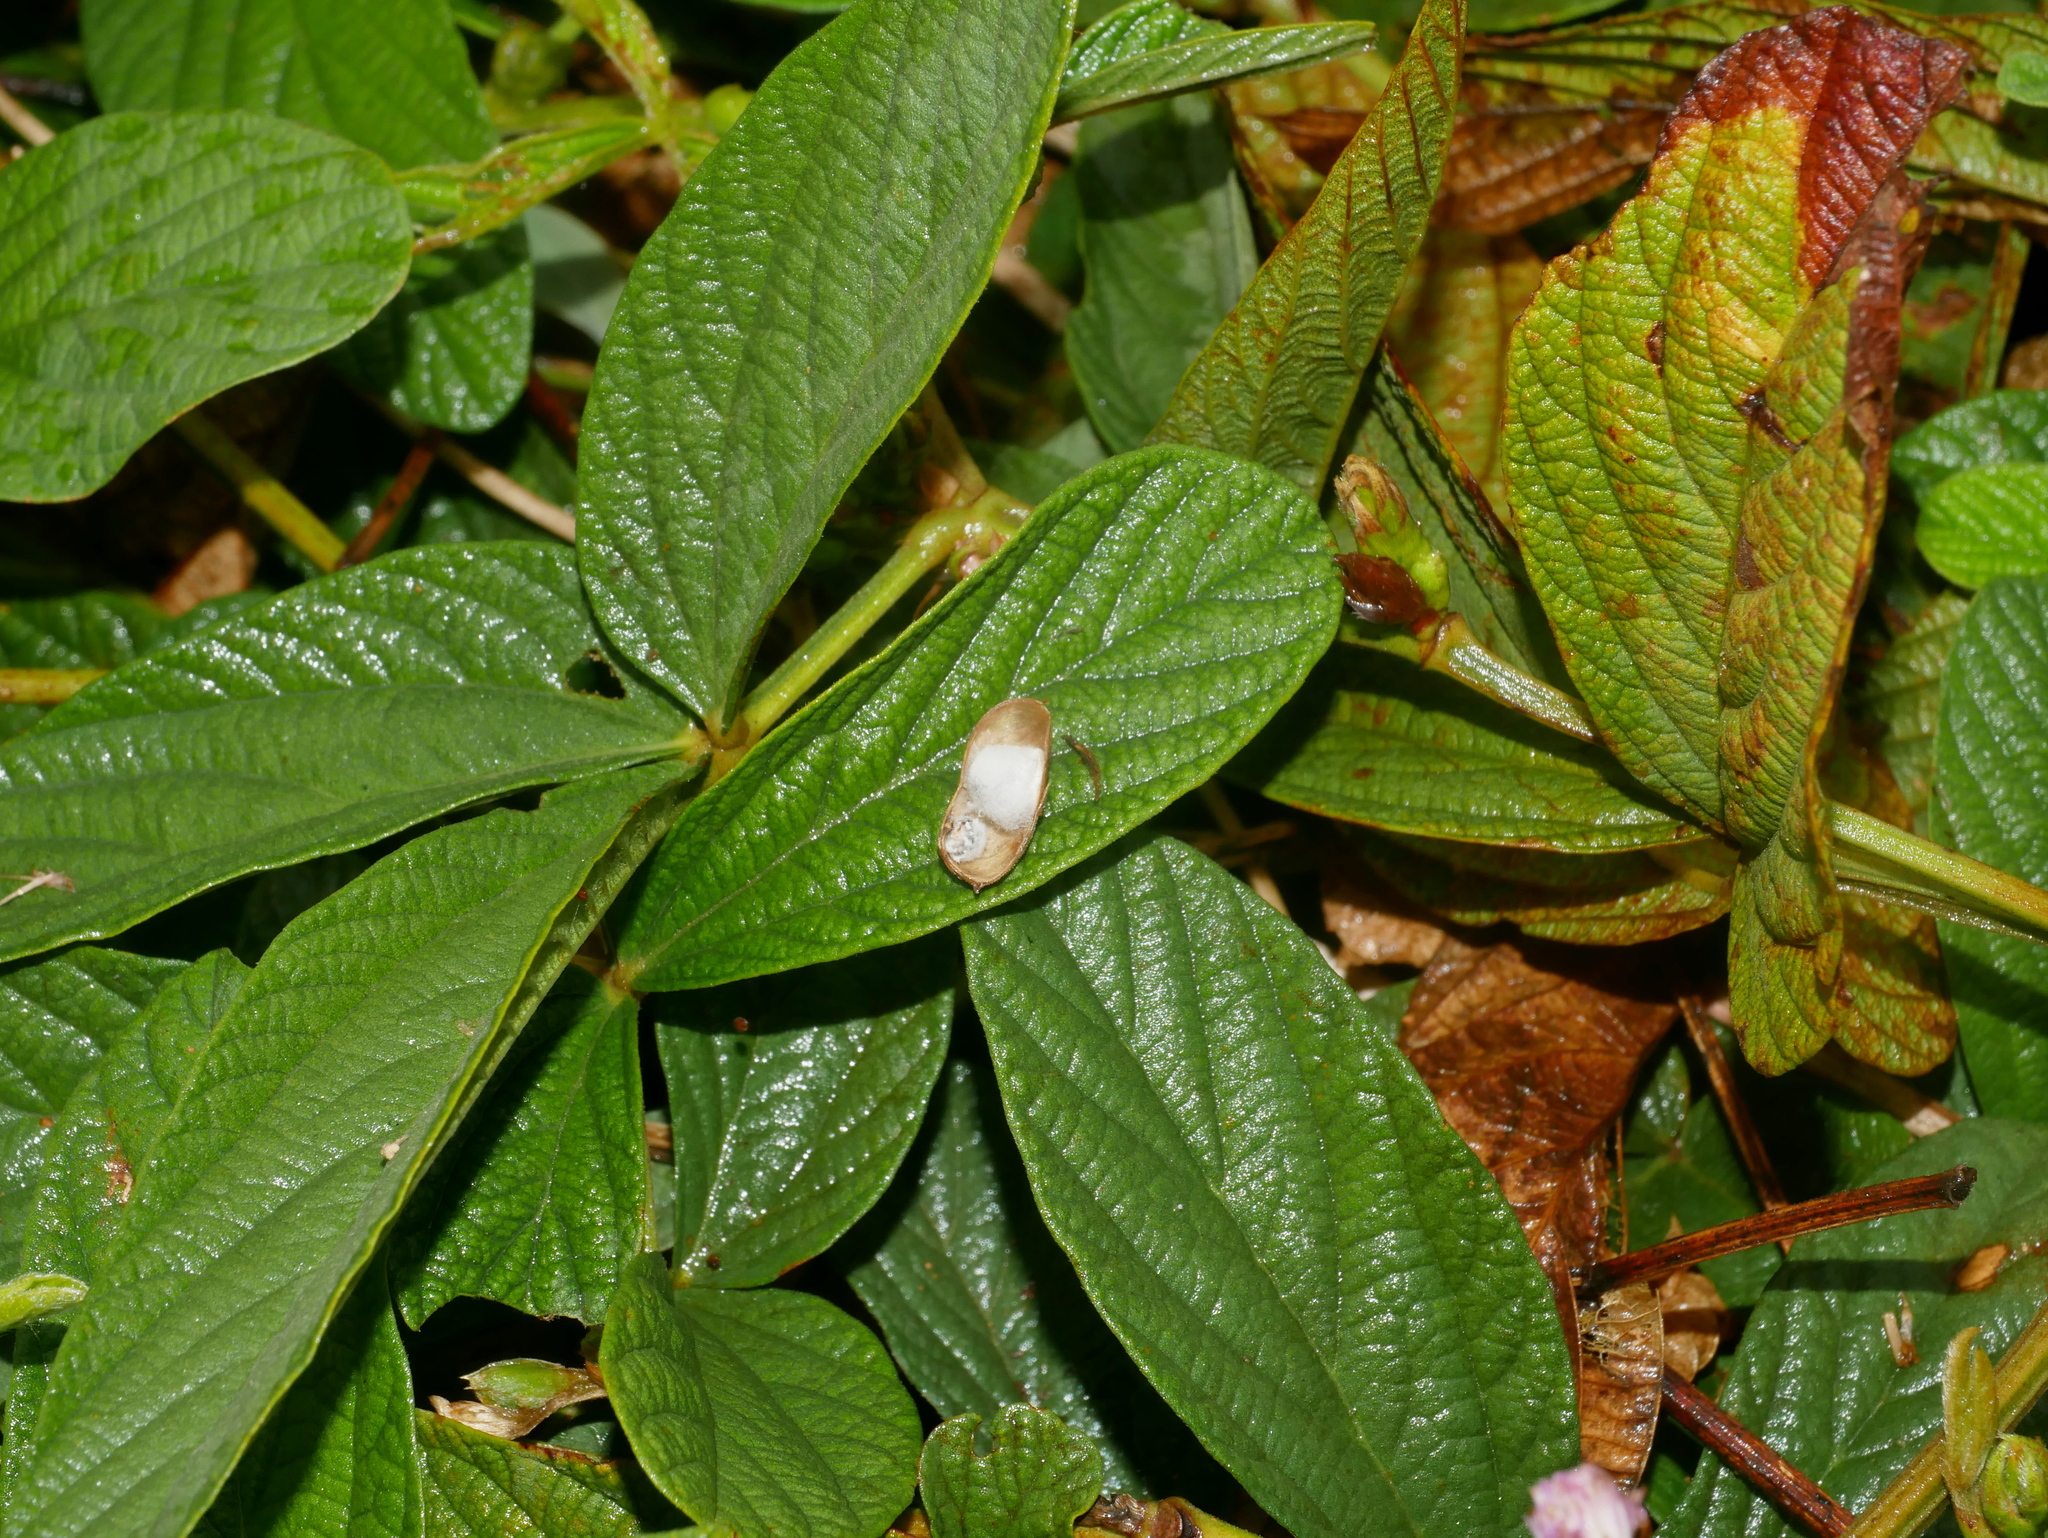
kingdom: Plantae
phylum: Tracheophyta
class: Magnoliopsida
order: Fabales
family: Fabaceae
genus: Flemingia
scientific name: Flemingia macrophylla
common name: Flemingia
